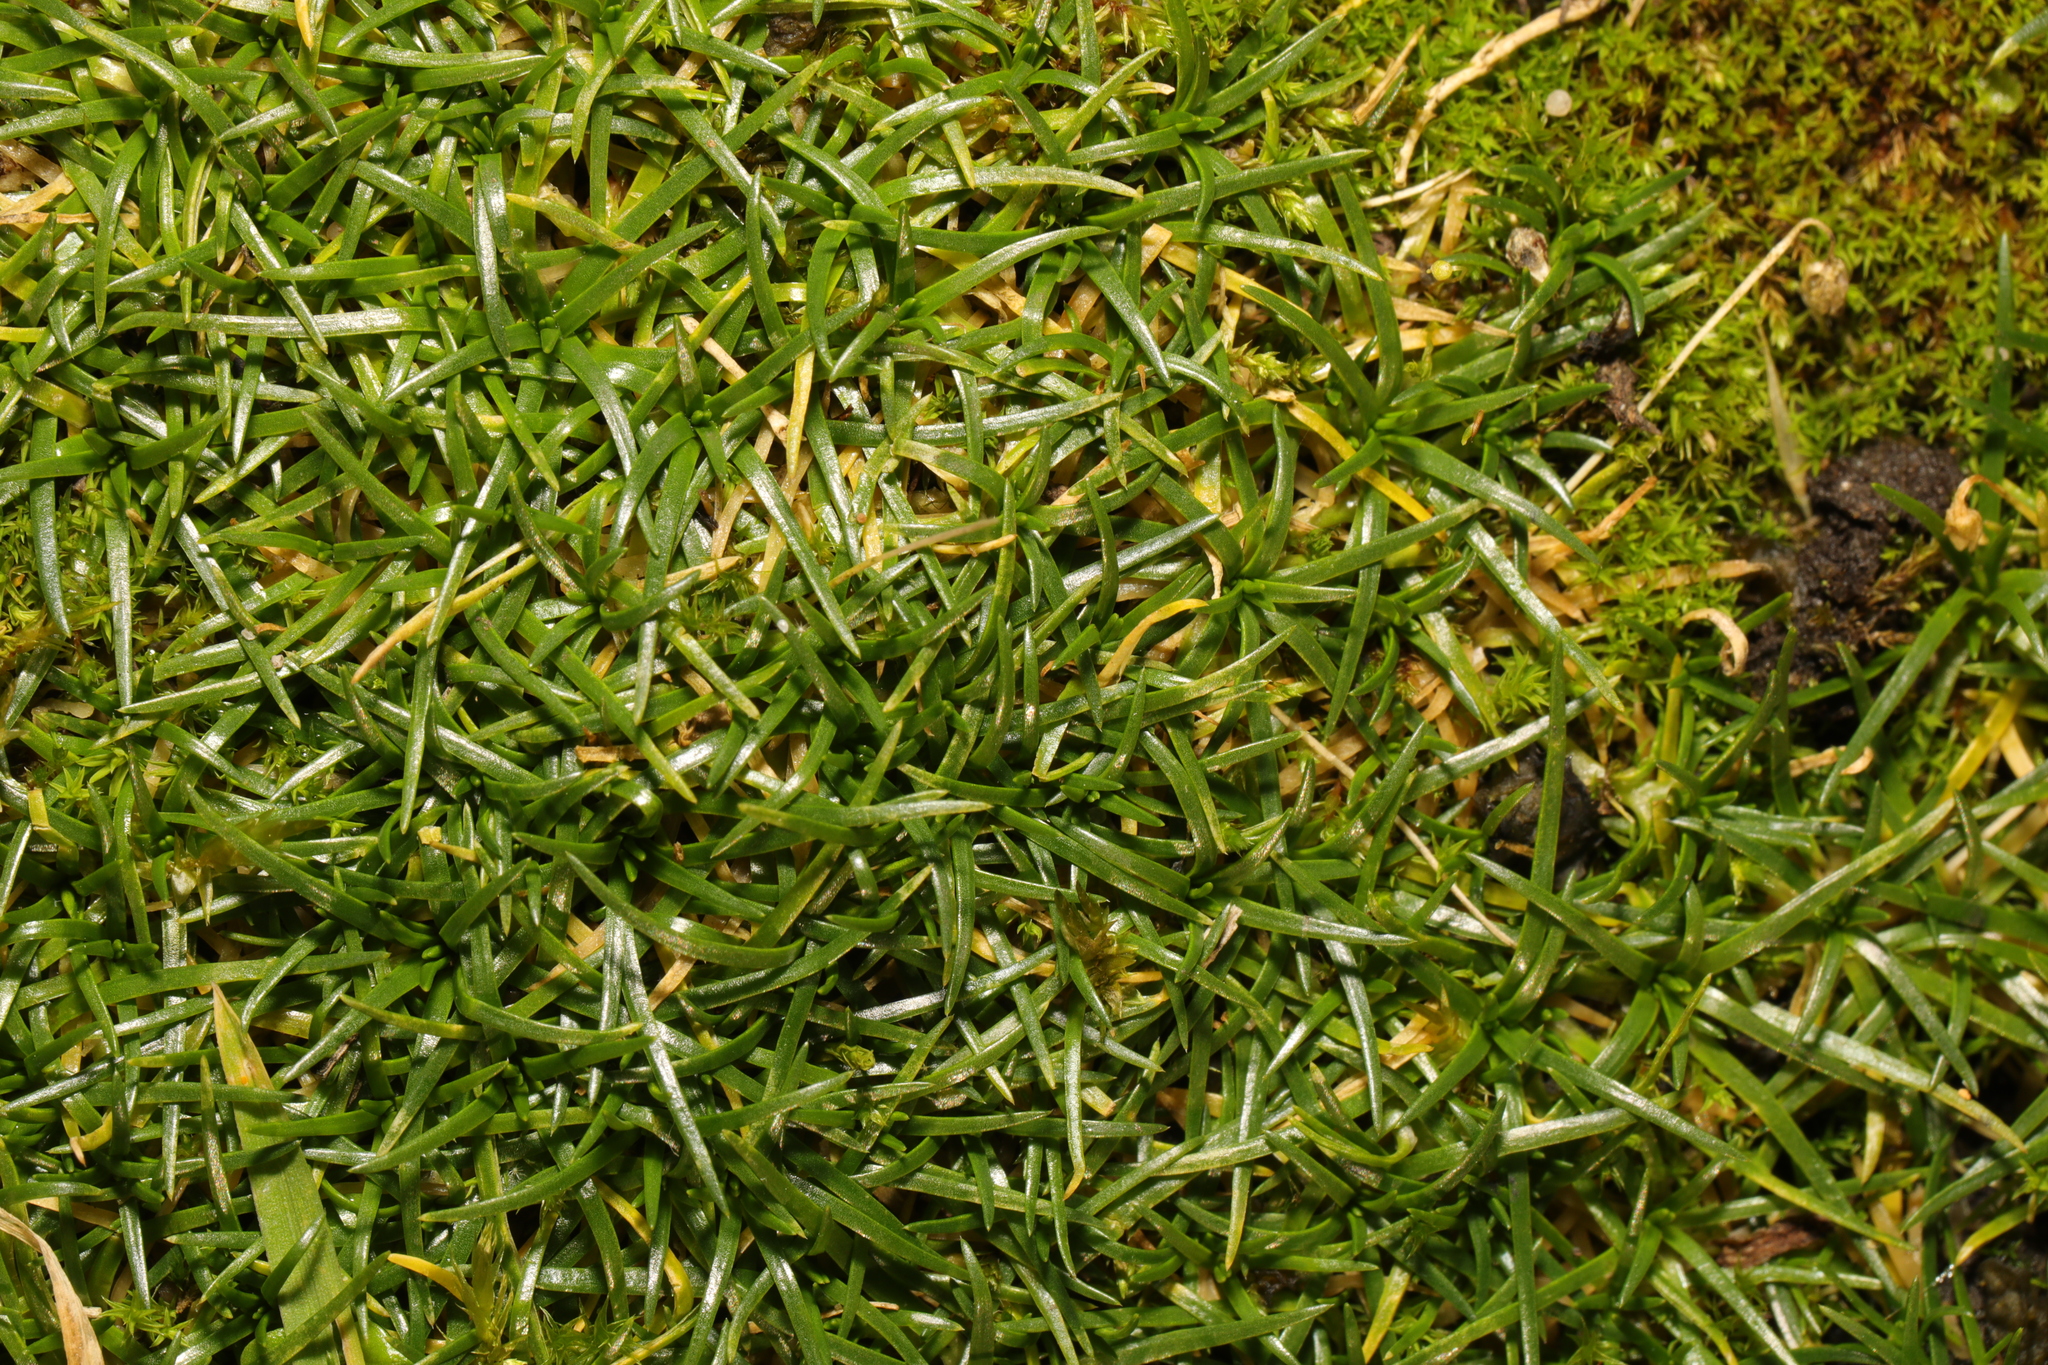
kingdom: Plantae
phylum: Tracheophyta
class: Magnoliopsida
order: Caryophyllales
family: Caryophyllaceae
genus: Sagina
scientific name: Sagina procumbens
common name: Procumbent pearlwort
